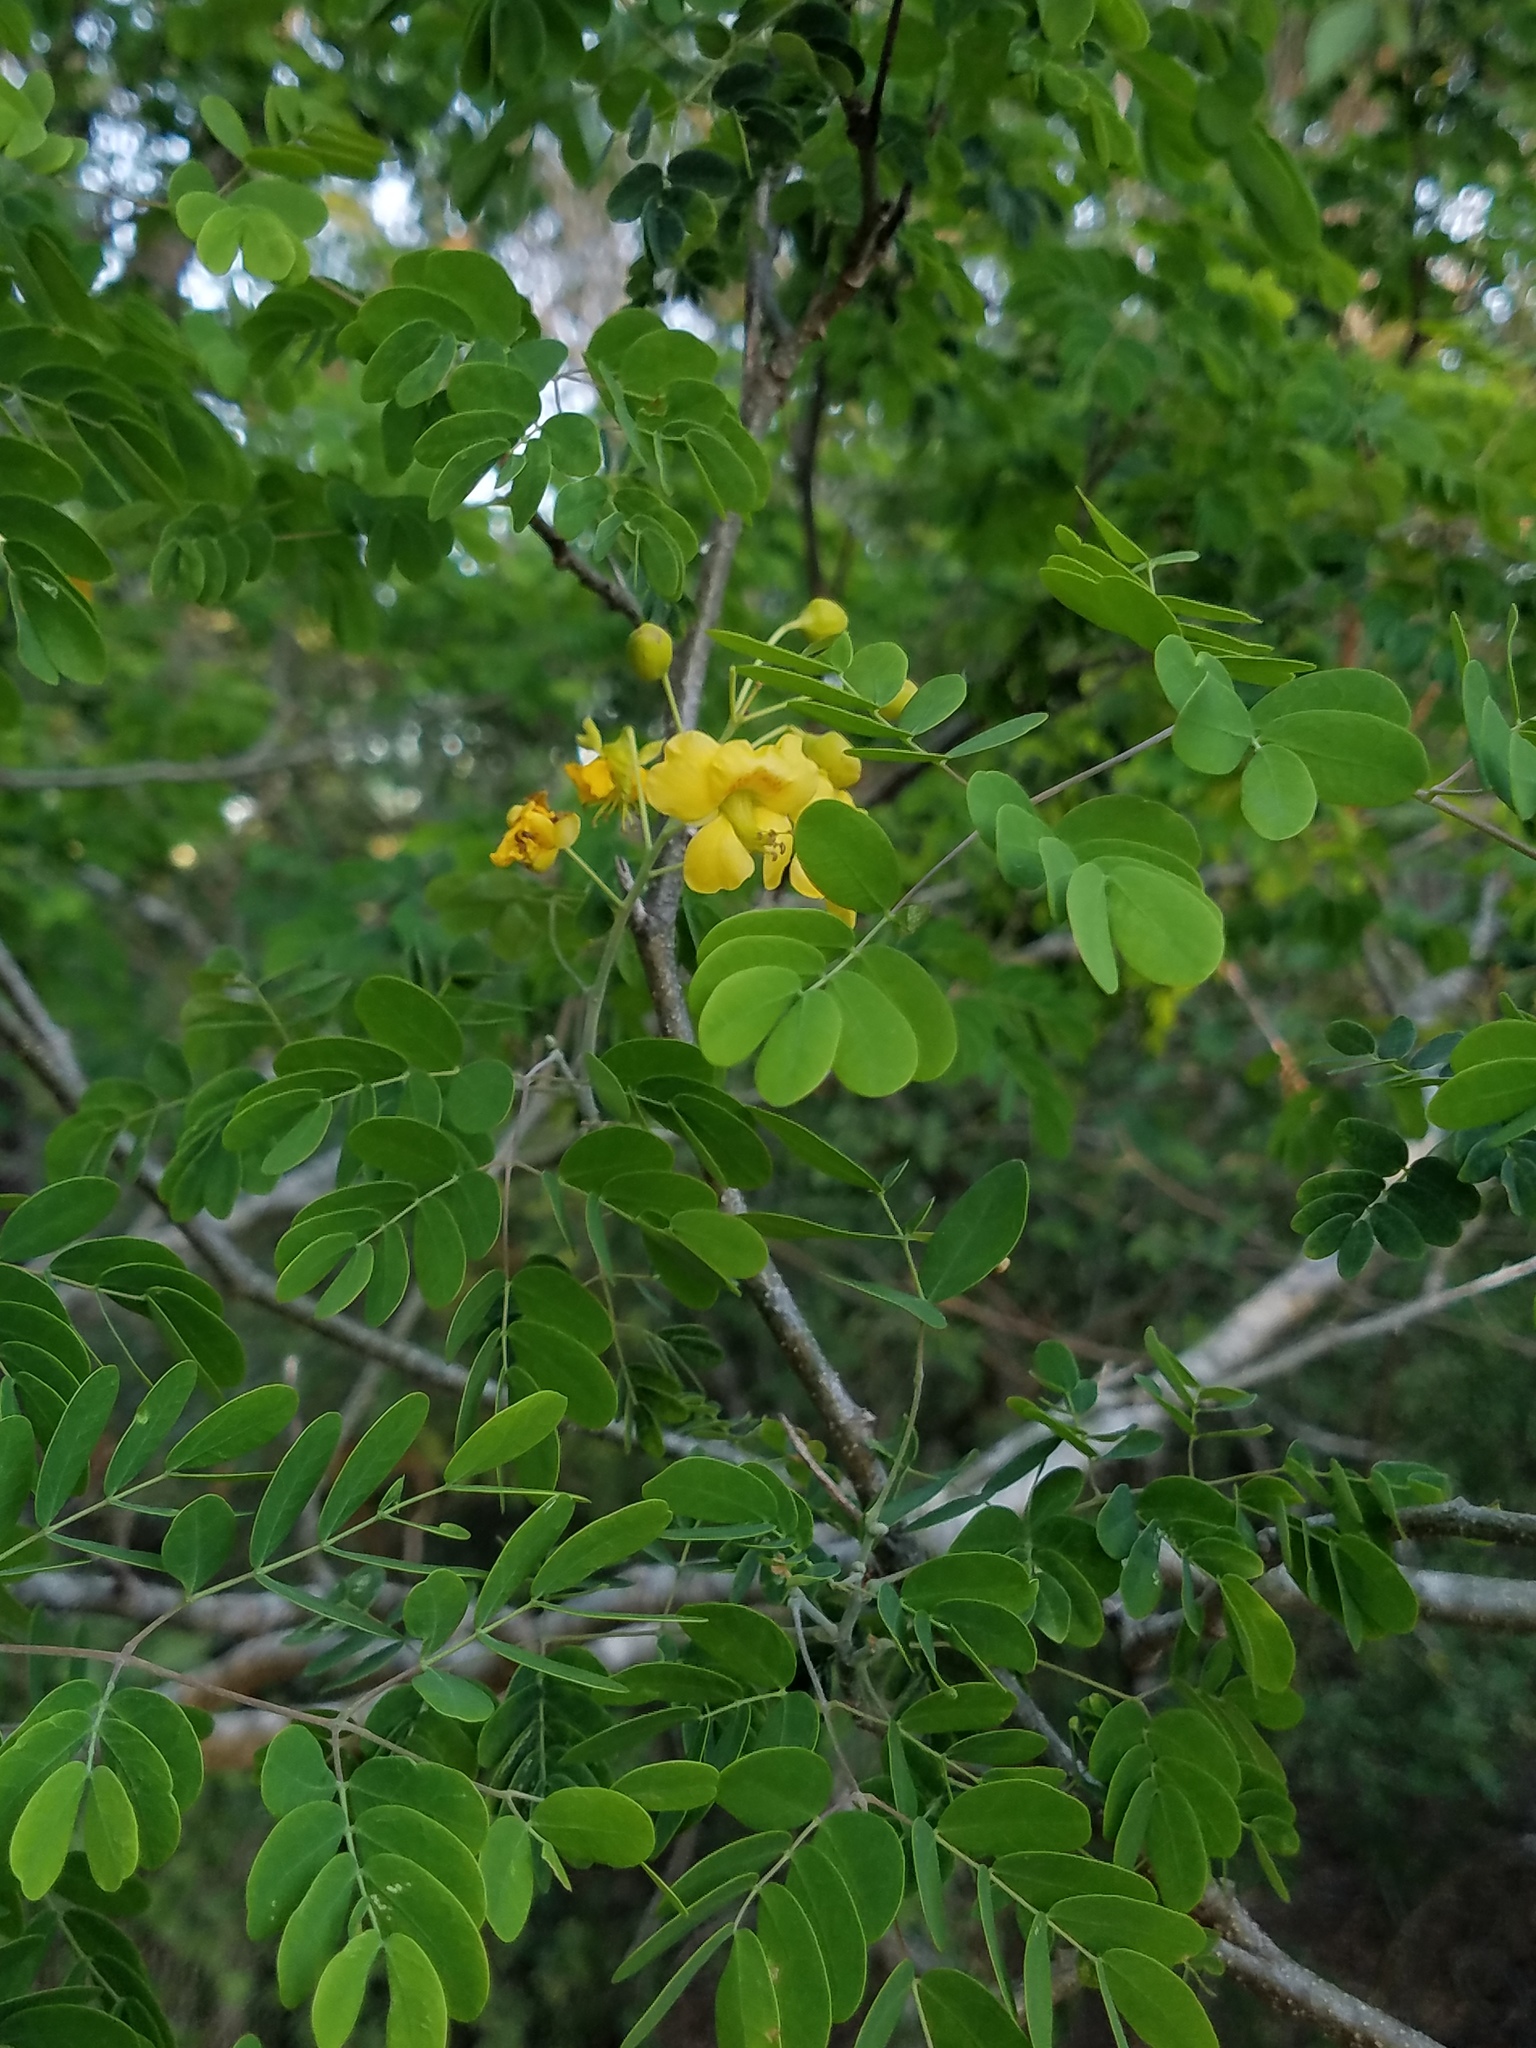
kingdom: Plantae
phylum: Tracheophyta
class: Magnoliopsida
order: Fabales
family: Fabaceae
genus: Erythrostemon
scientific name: Erythrostemon mexicanus
